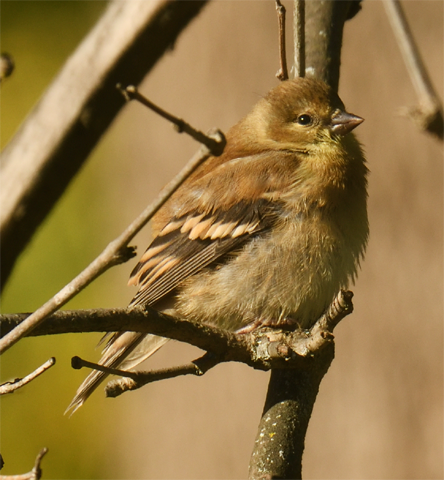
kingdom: Animalia
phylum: Chordata
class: Aves
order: Passeriformes
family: Fringillidae
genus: Spinus
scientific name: Spinus tristis
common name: American goldfinch
